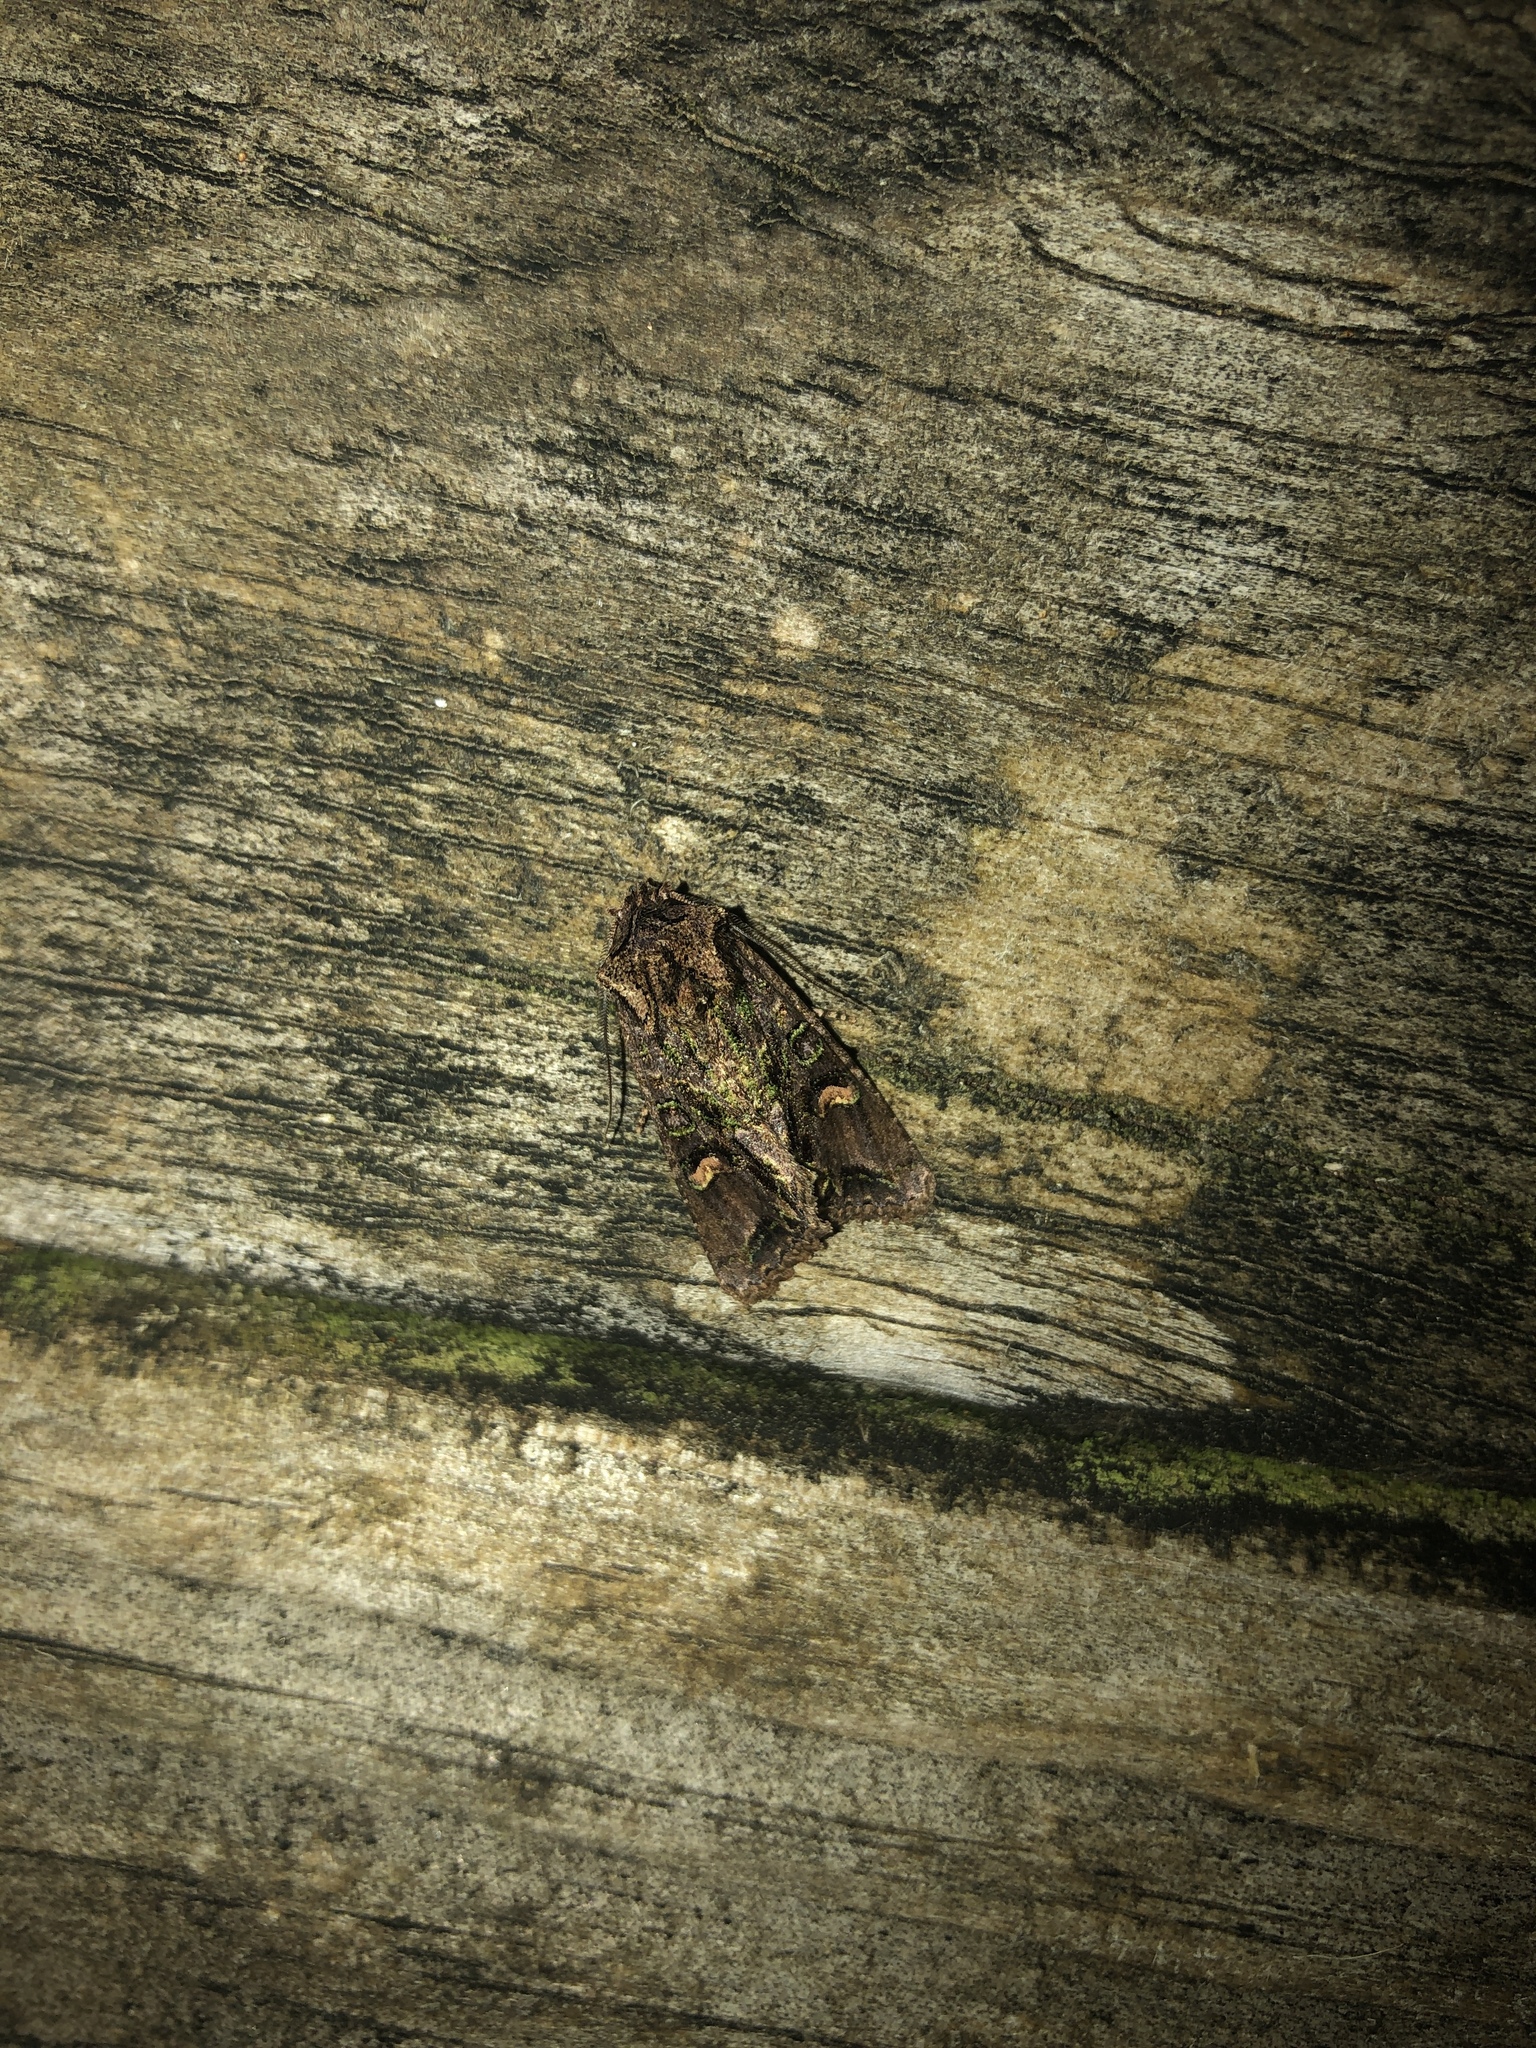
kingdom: Animalia
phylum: Arthropoda
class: Insecta
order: Lepidoptera
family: Noctuidae
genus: Ichneutica
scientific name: Ichneutica insignis
